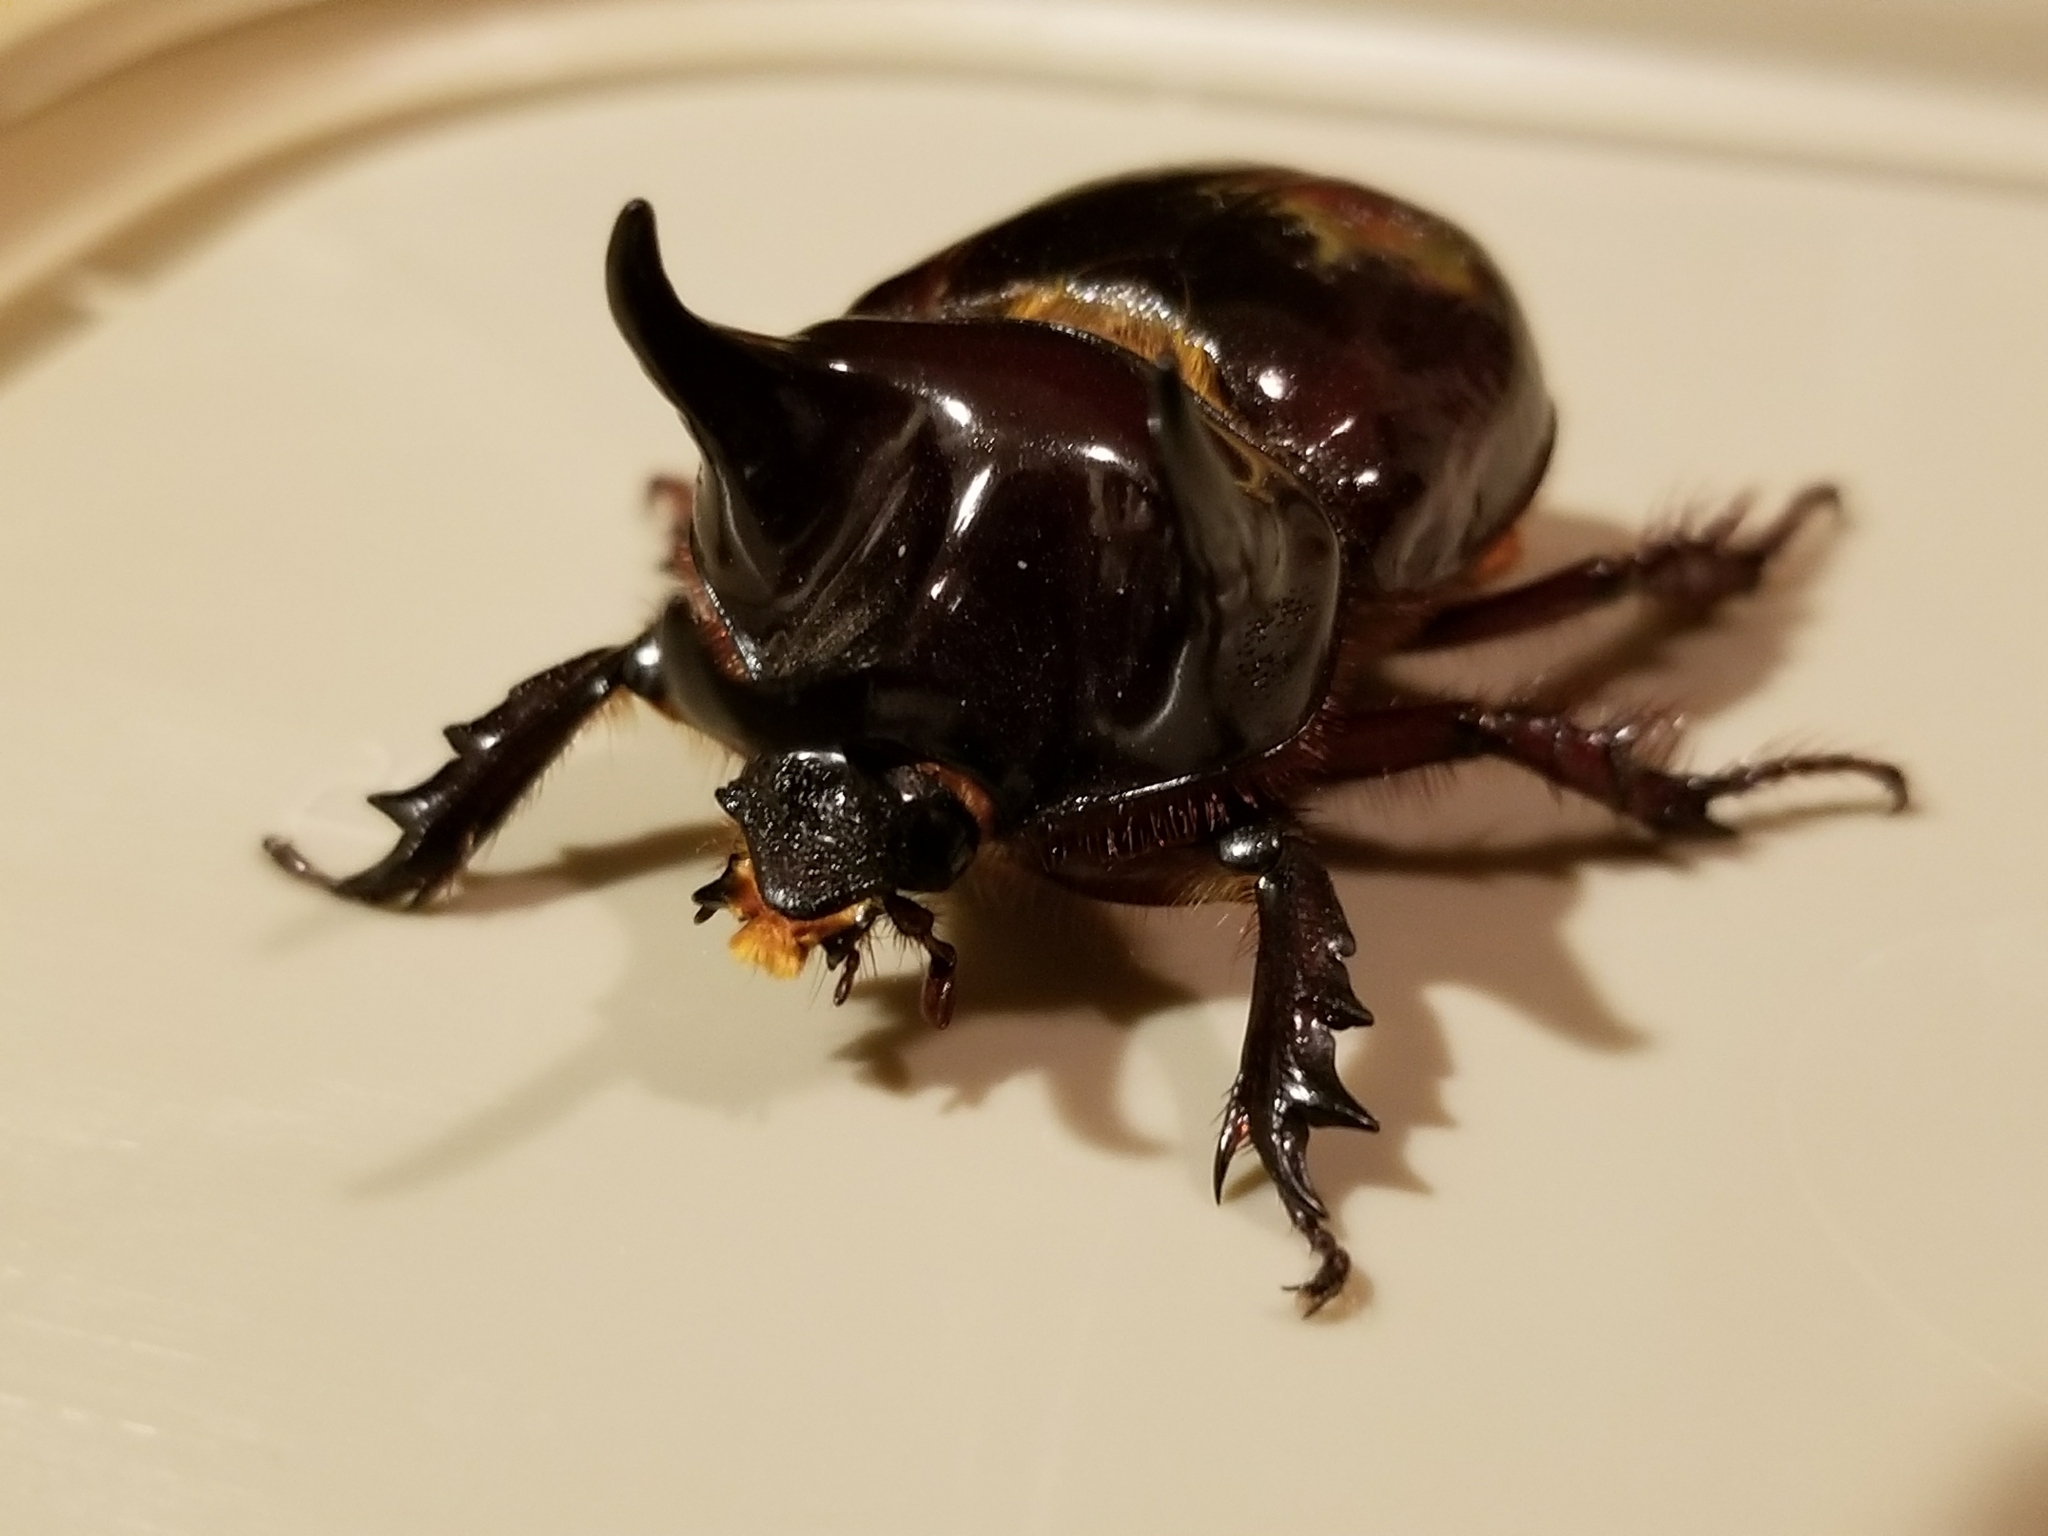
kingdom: Animalia
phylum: Arthropoda
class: Insecta
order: Coleoptera
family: Scarabaeidae
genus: Strategus
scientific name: Strategus antaeus
